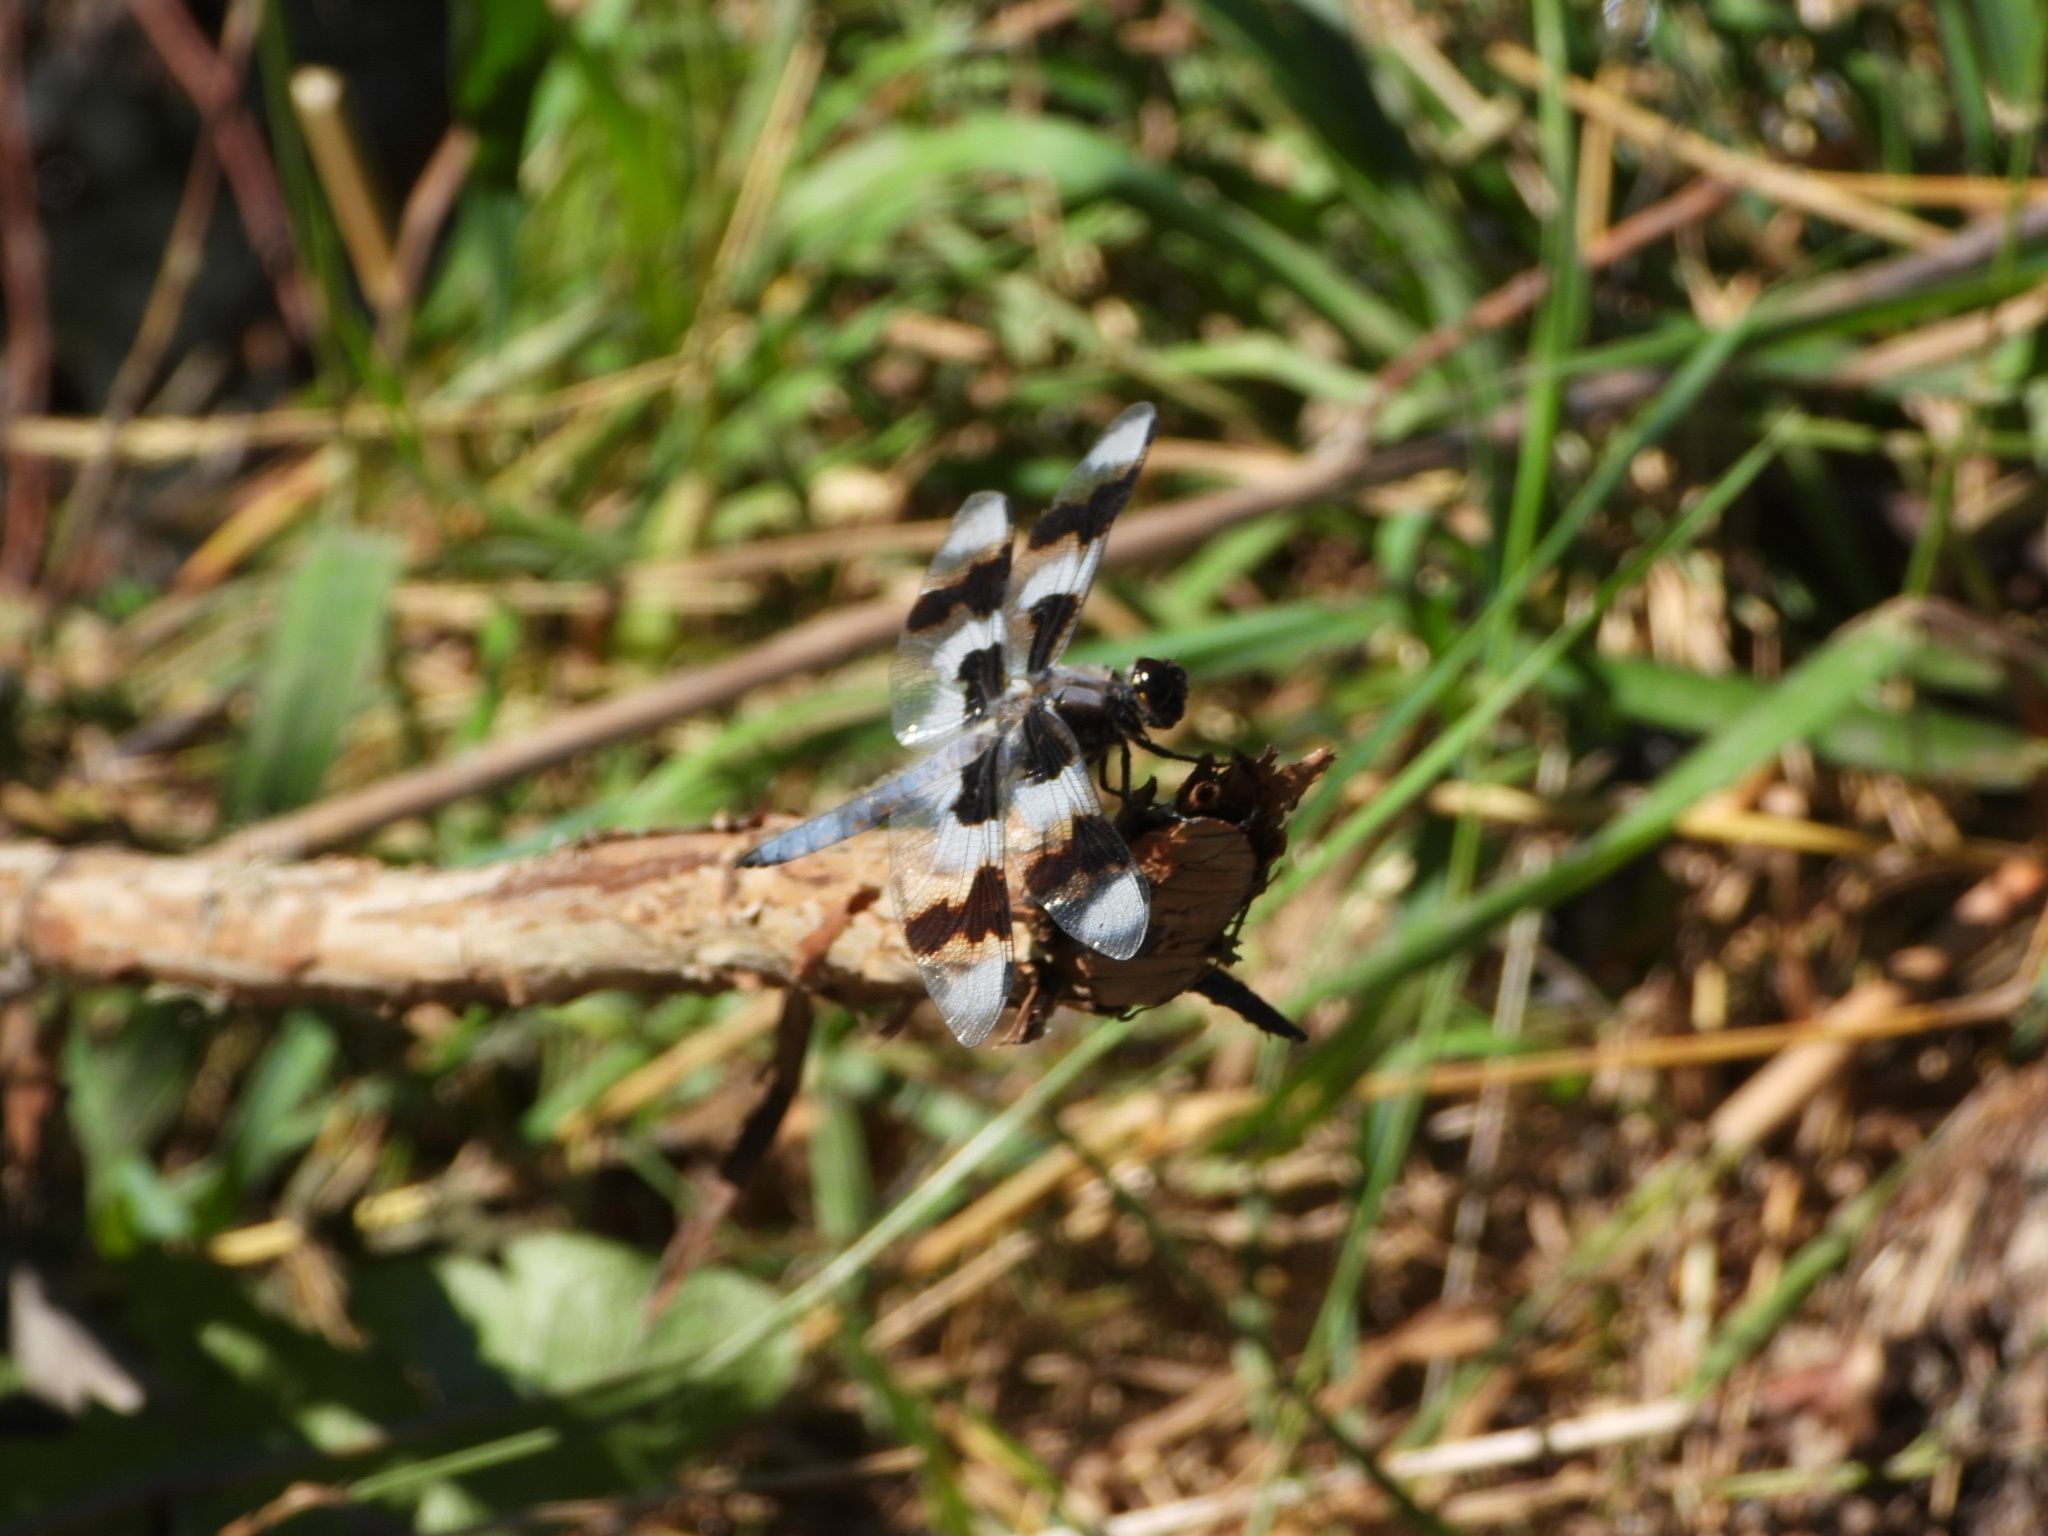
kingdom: Animalia
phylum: Arthropoda
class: Insecta
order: Odonata
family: Libellulidae
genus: Libellula
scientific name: Libellula forensis
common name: Eight-spotted skimmer
